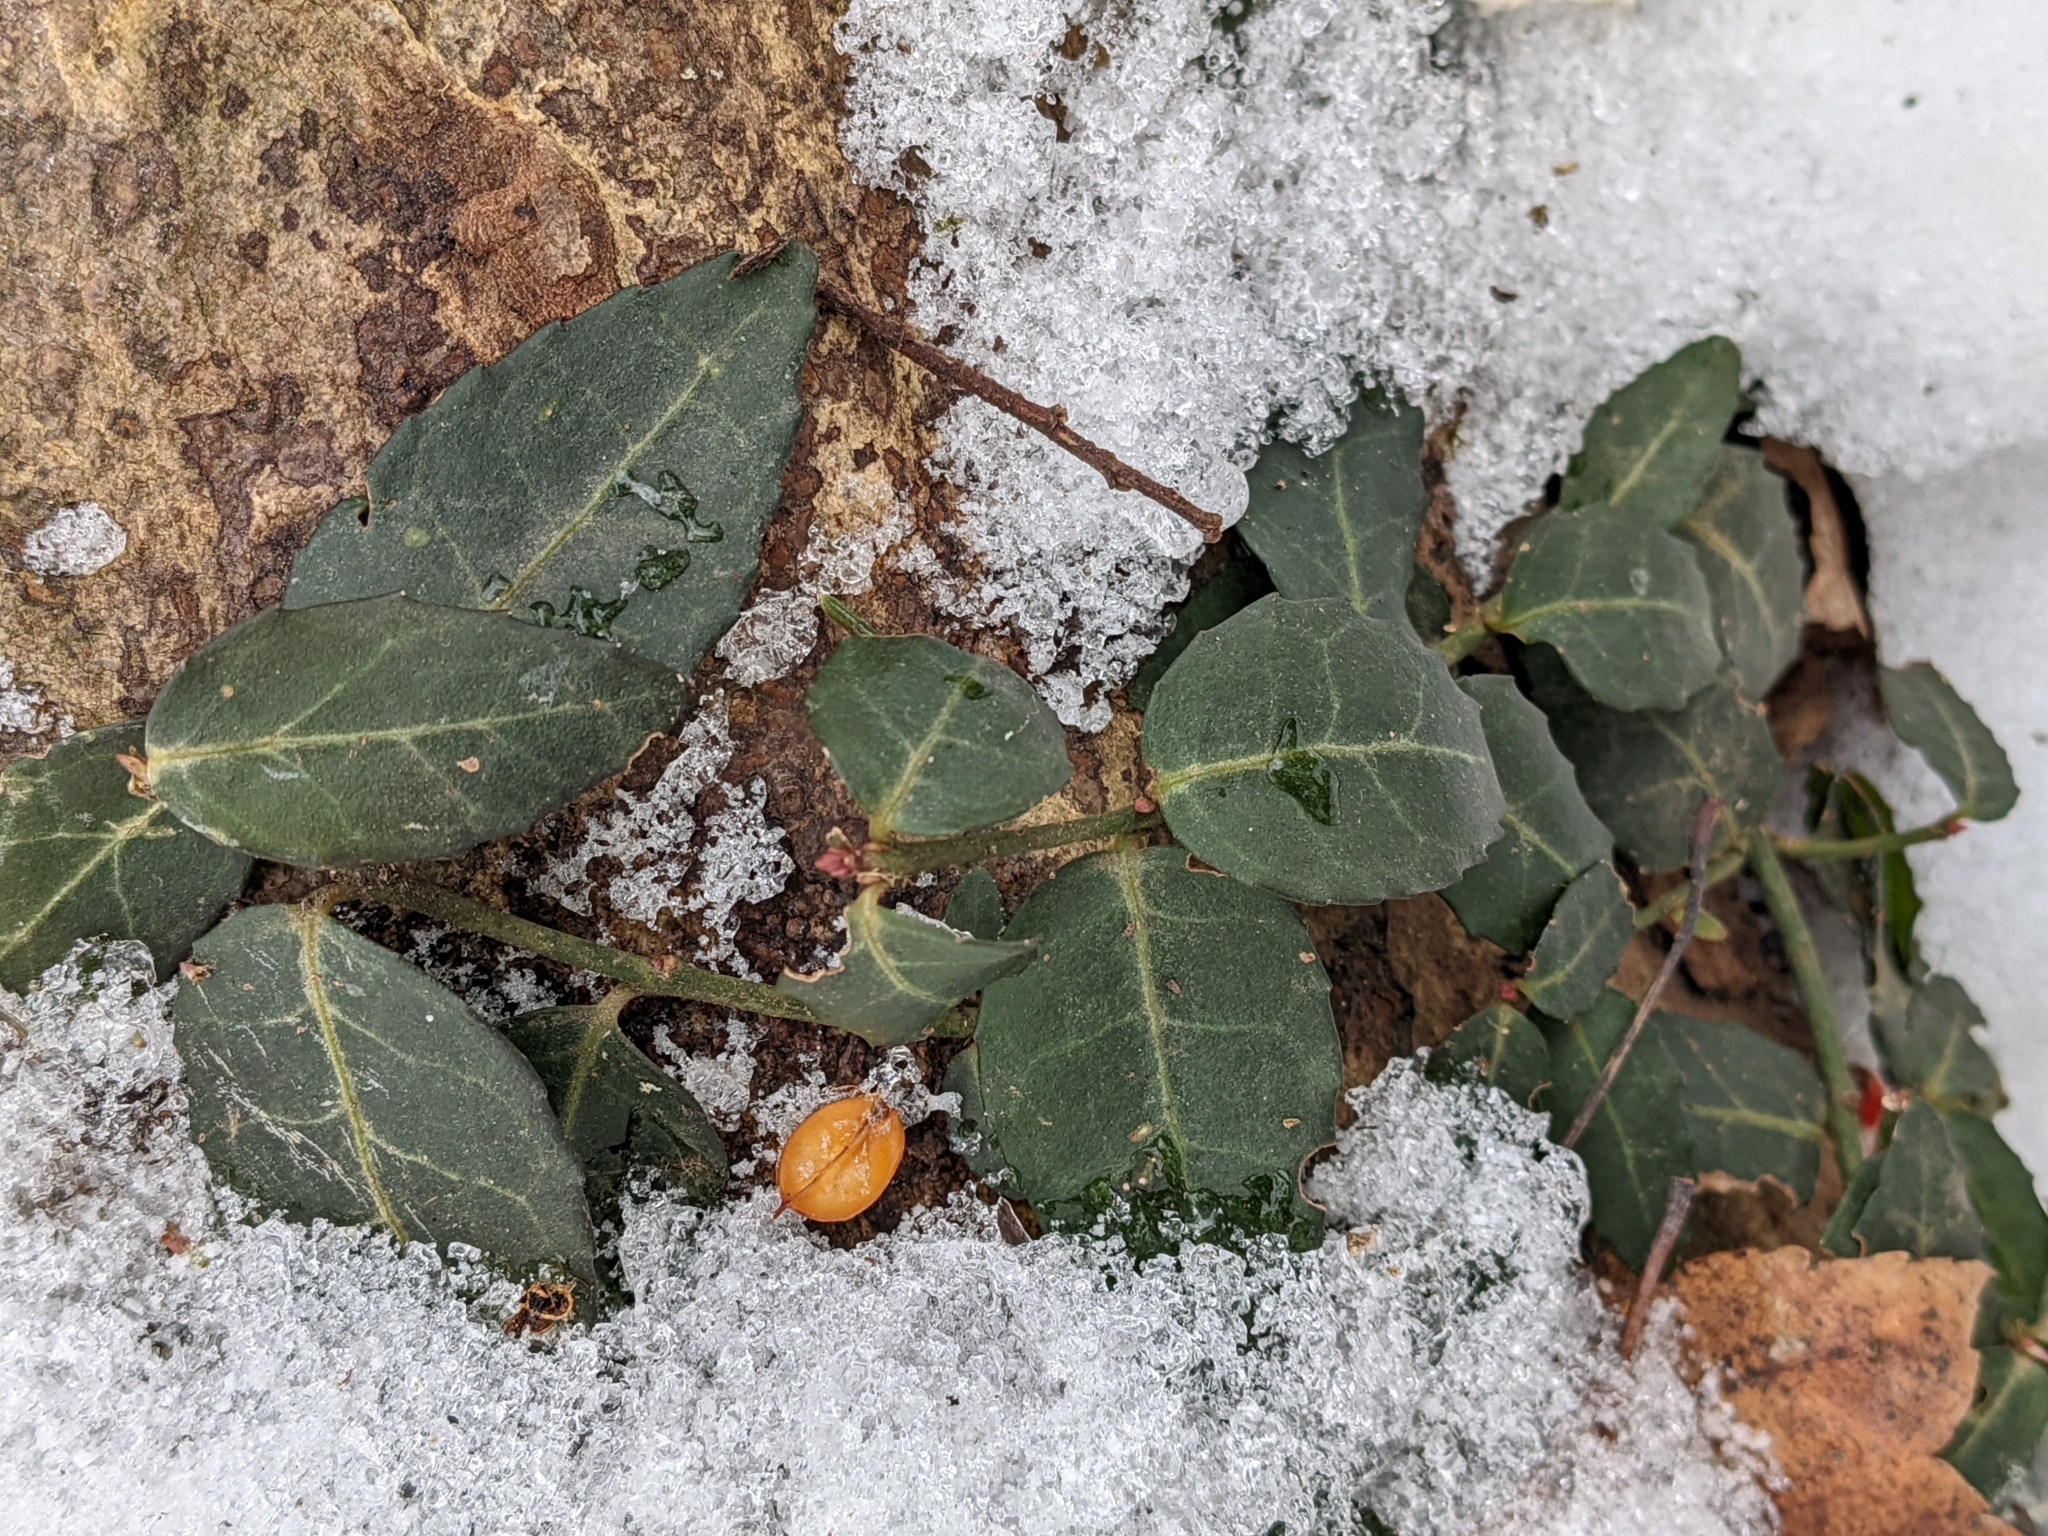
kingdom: Plantae
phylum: Tracheophyta
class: Magnoliopsida
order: Celastrales
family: Celastraceae
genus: Euonymus
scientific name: Euonymus fortunei
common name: Climbing euonymus
